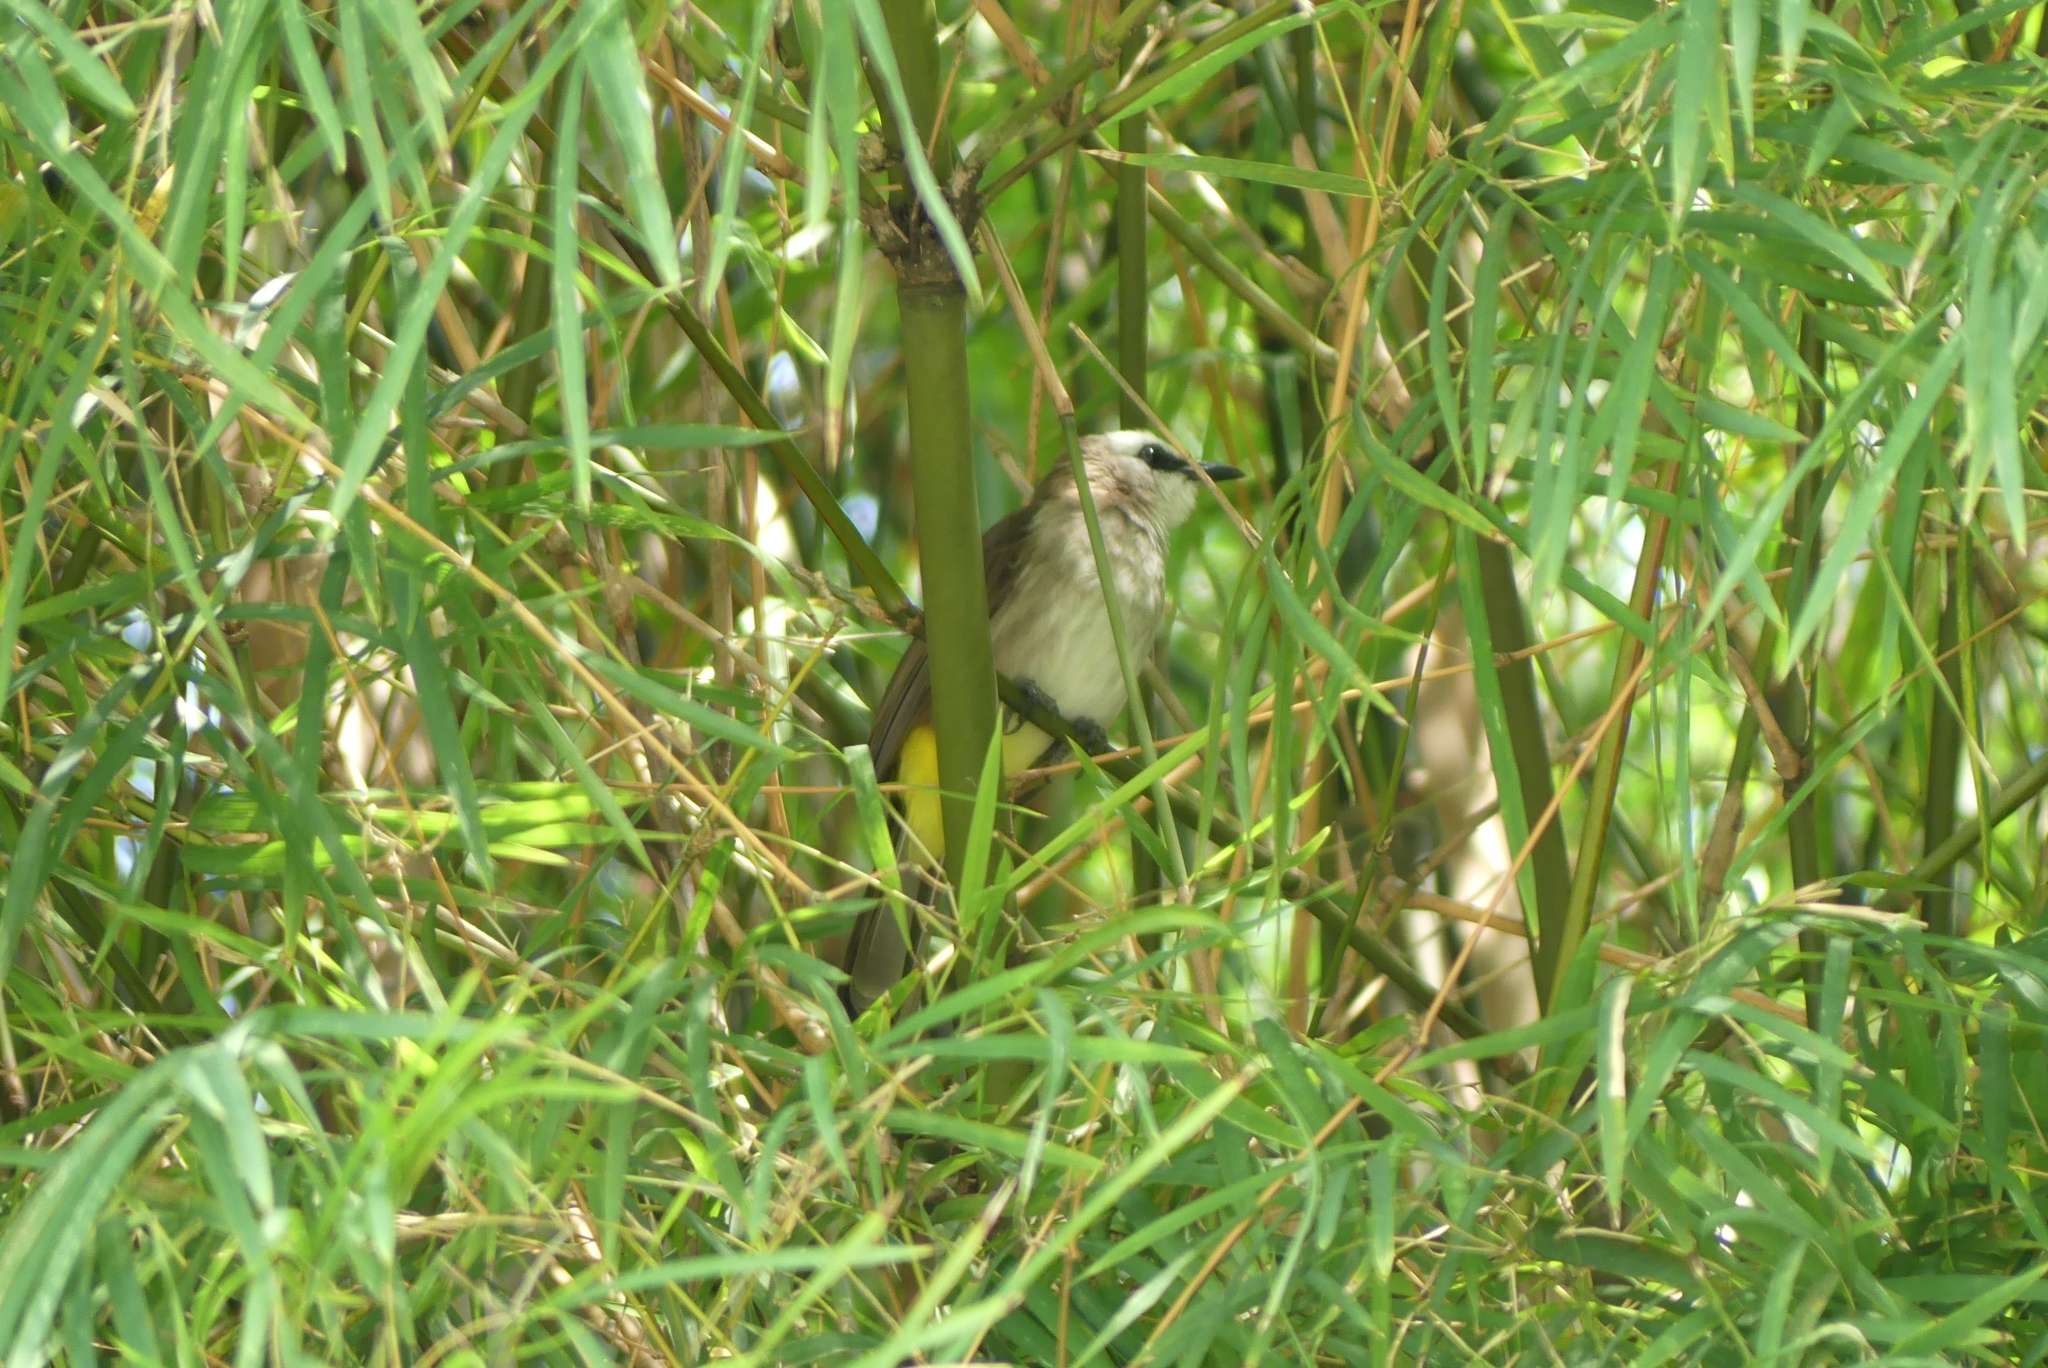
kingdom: Animalia
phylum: Chordata
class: Aves
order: Passeriformes
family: Pycnonotidae
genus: Pycnonotus
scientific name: Pycnonotus goiavier
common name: Yellow-vented bulbul
